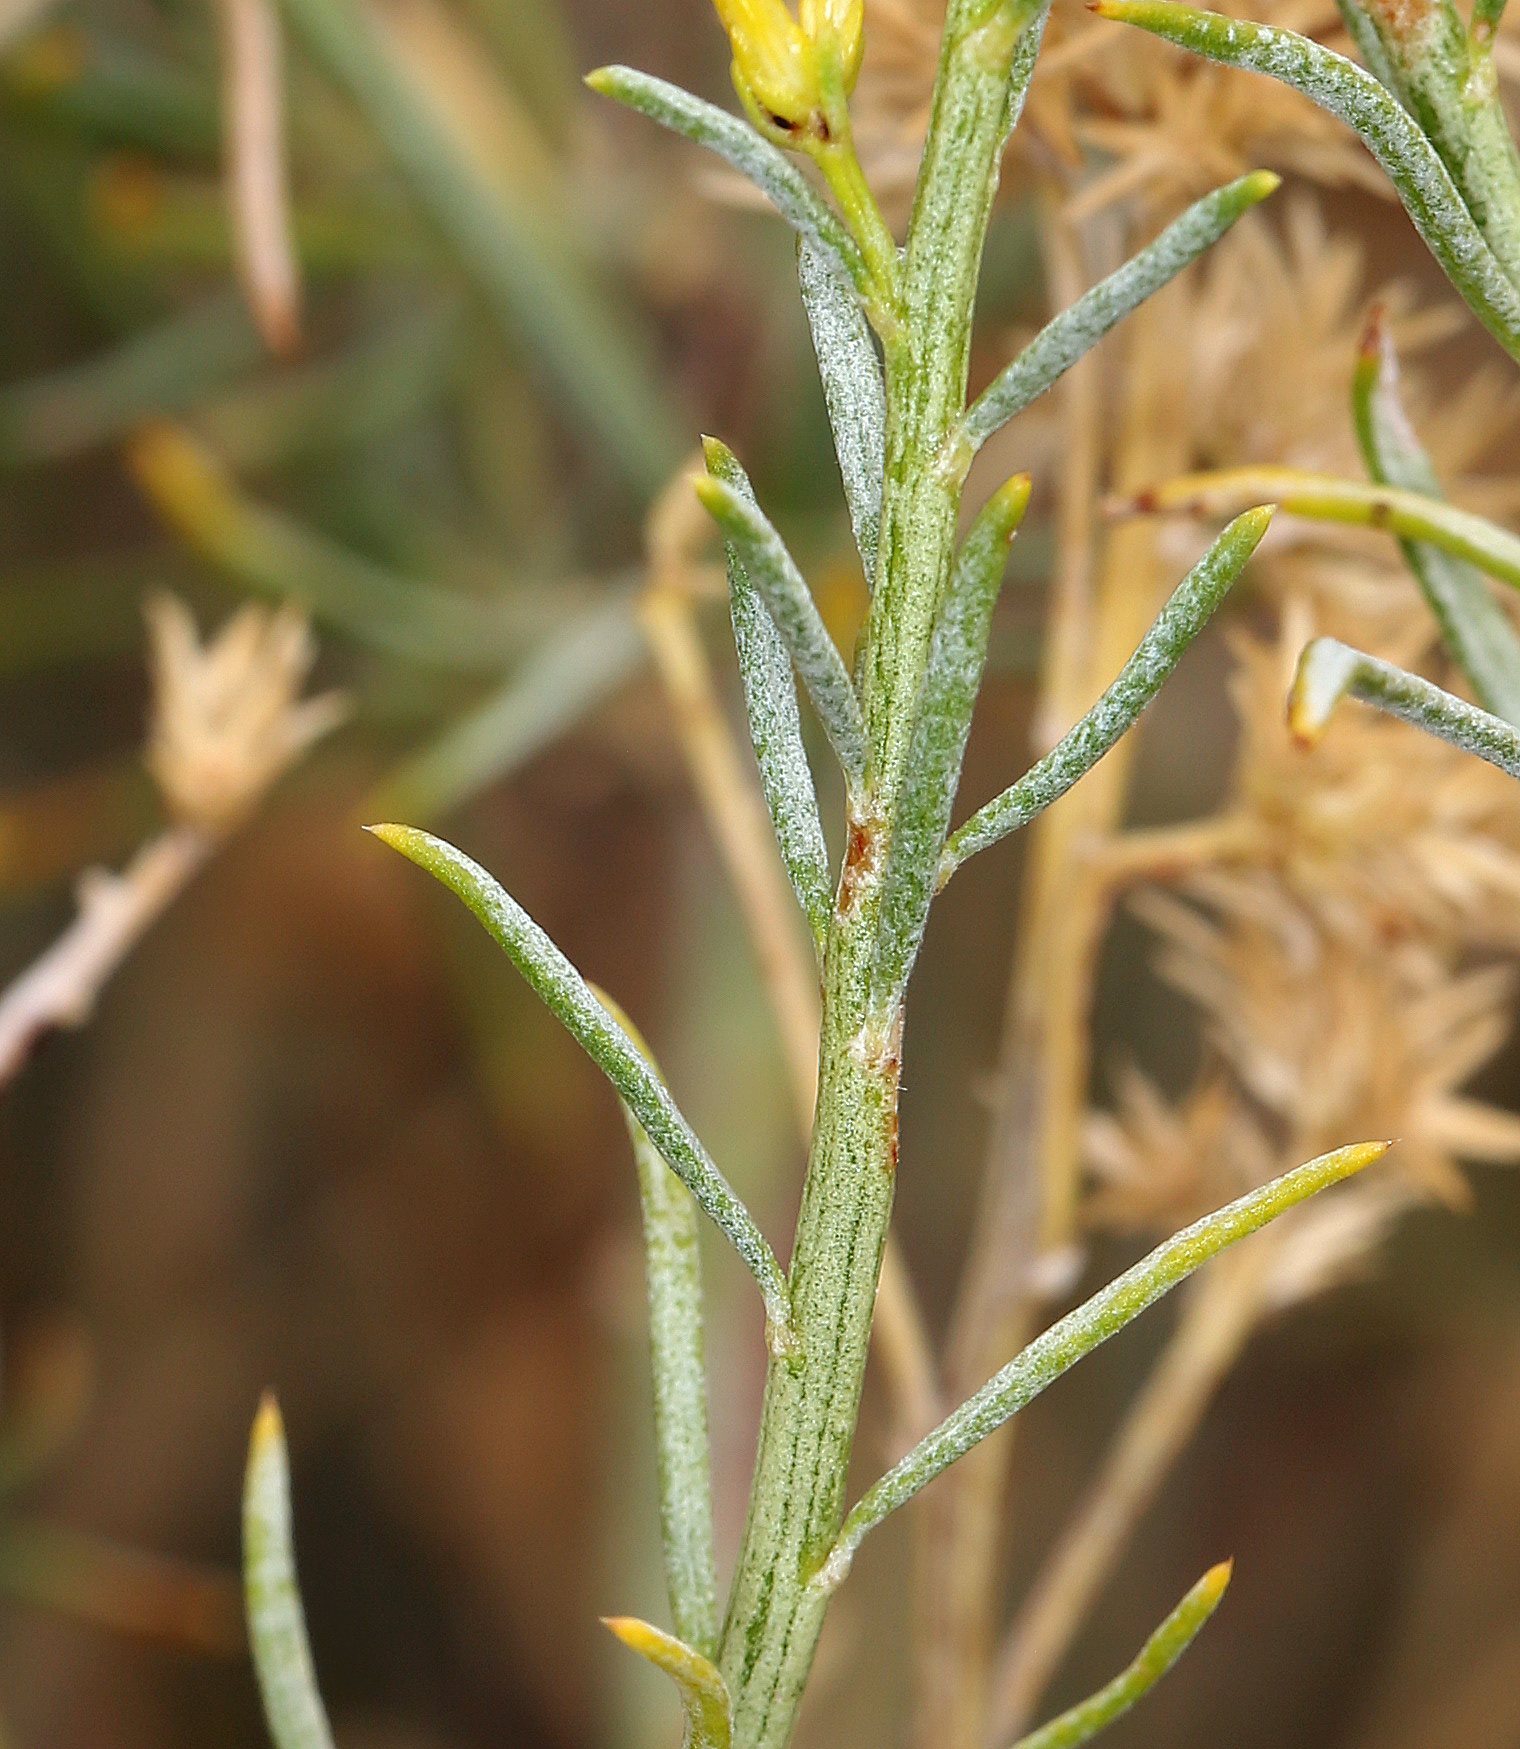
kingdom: Plantae
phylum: Tracheophyta
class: Magnoliopsida
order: Asterales
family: Asteraceae
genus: Ericameria
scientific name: Ericameria nauseosa
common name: Rubber rabbitbrush
